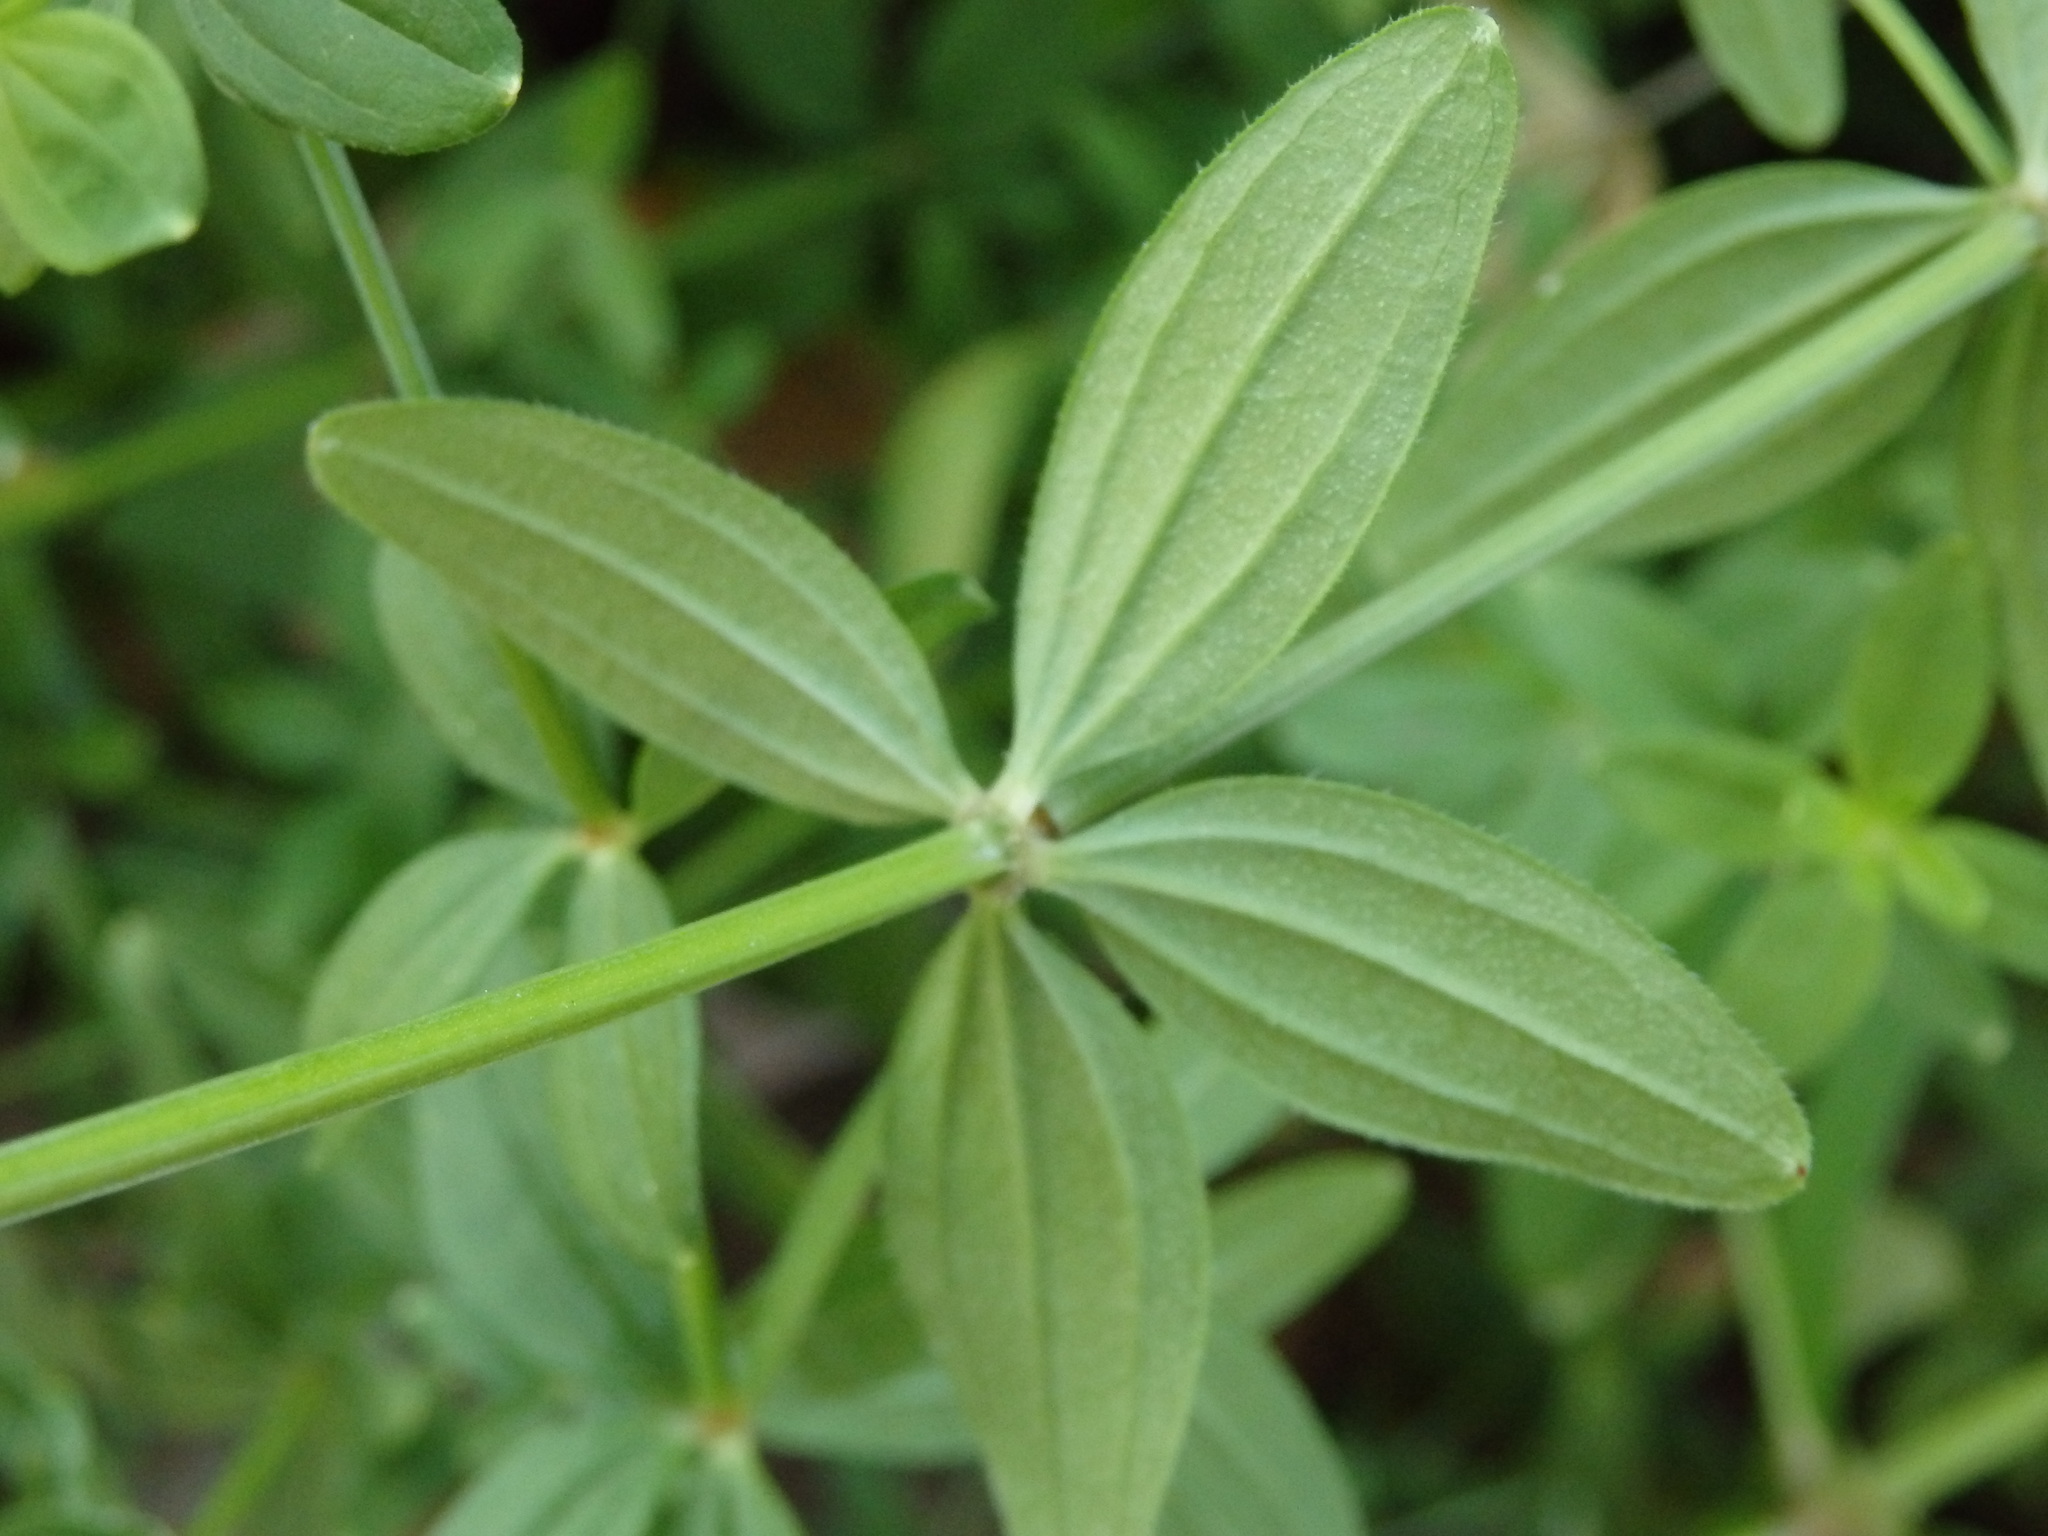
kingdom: Plantae
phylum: Tracheophyta
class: Magnoliopsida
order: Gentianales
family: Rubiaceae
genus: Galium
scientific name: Galium broterianum
